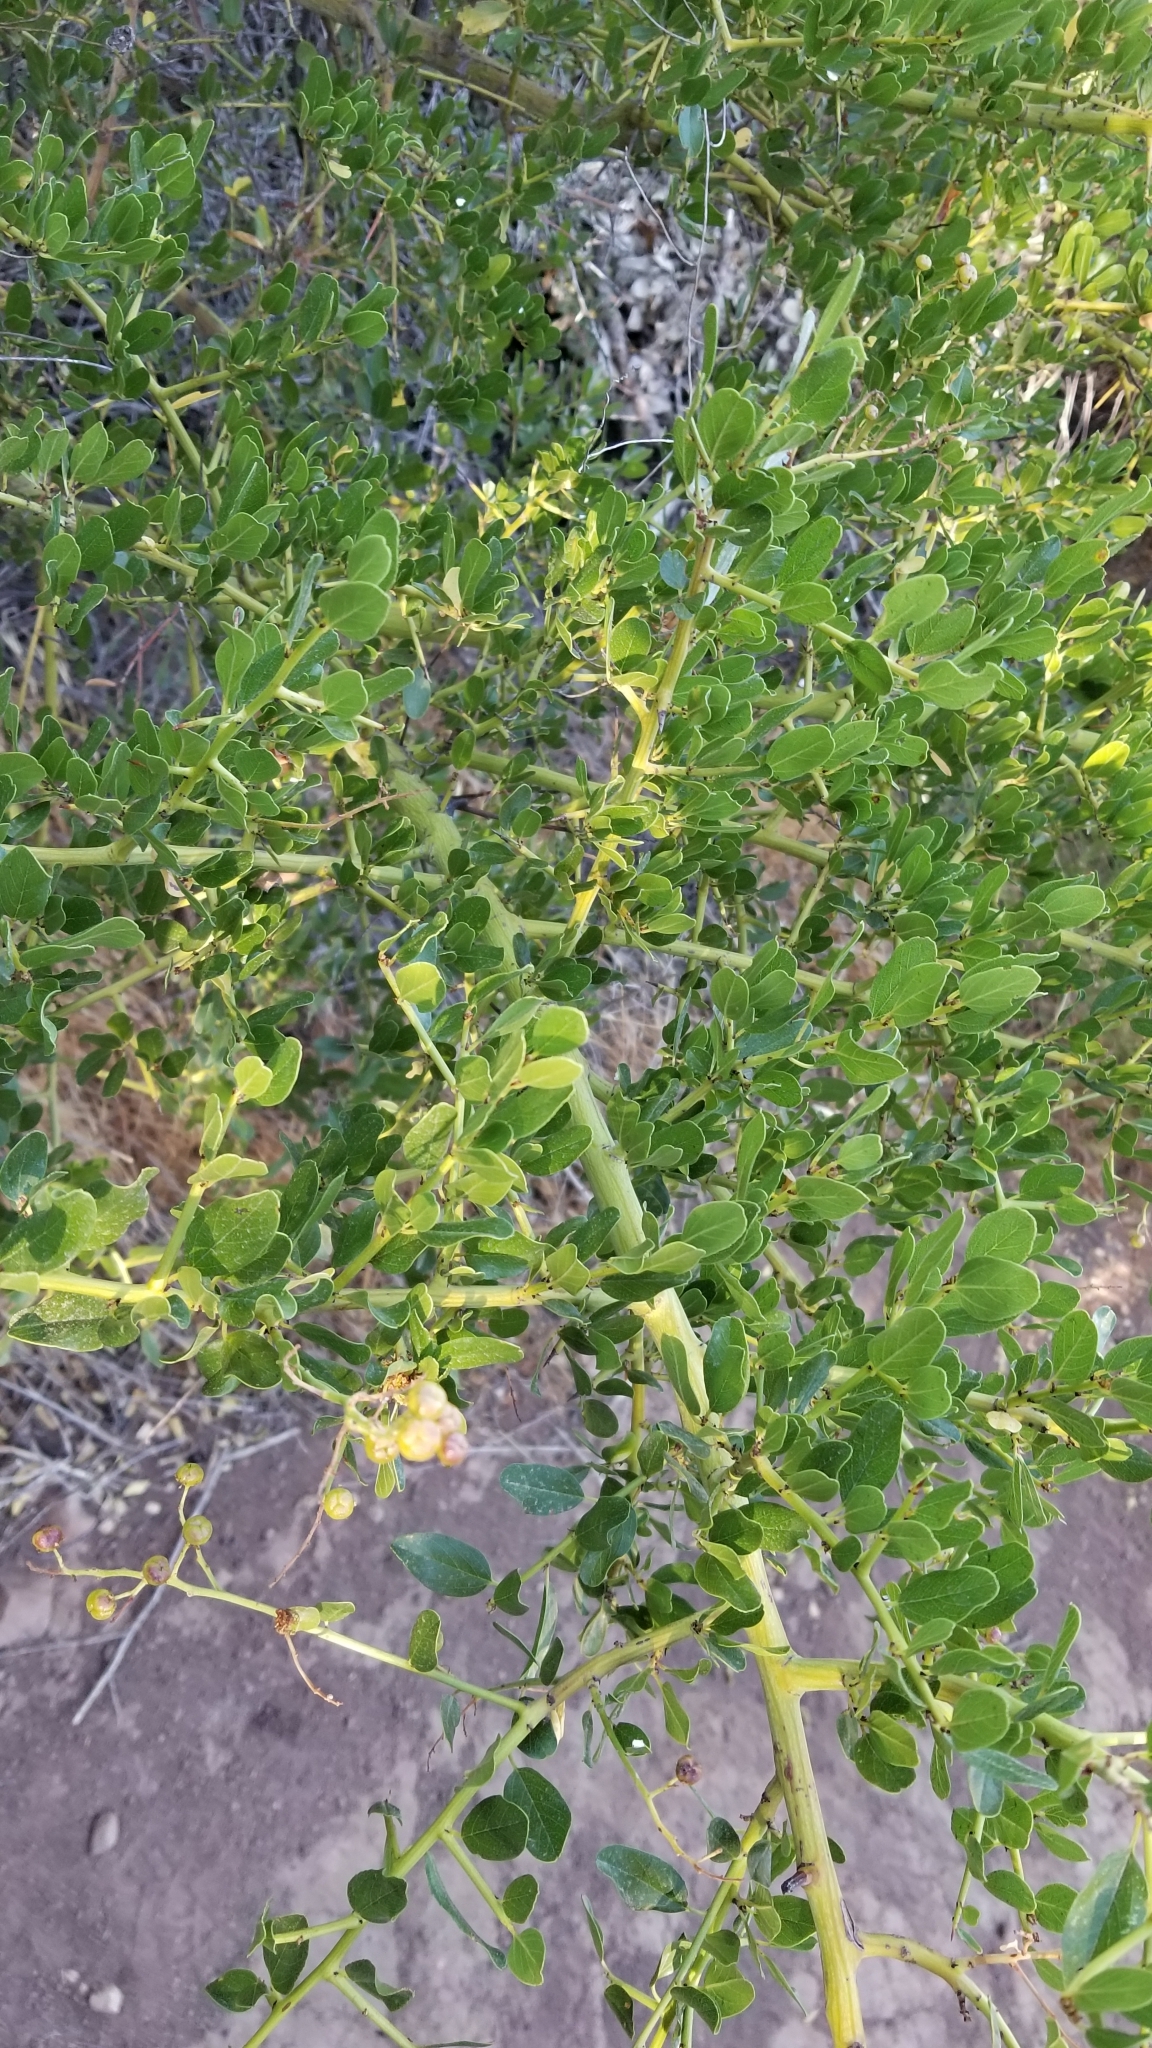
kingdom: Plantae
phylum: Tracheophyta
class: Magnoliopsida
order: Rosales
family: Rhamnaceae
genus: Ceanothus
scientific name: Ceanothus spinosus
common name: Greenbark whitethorn
